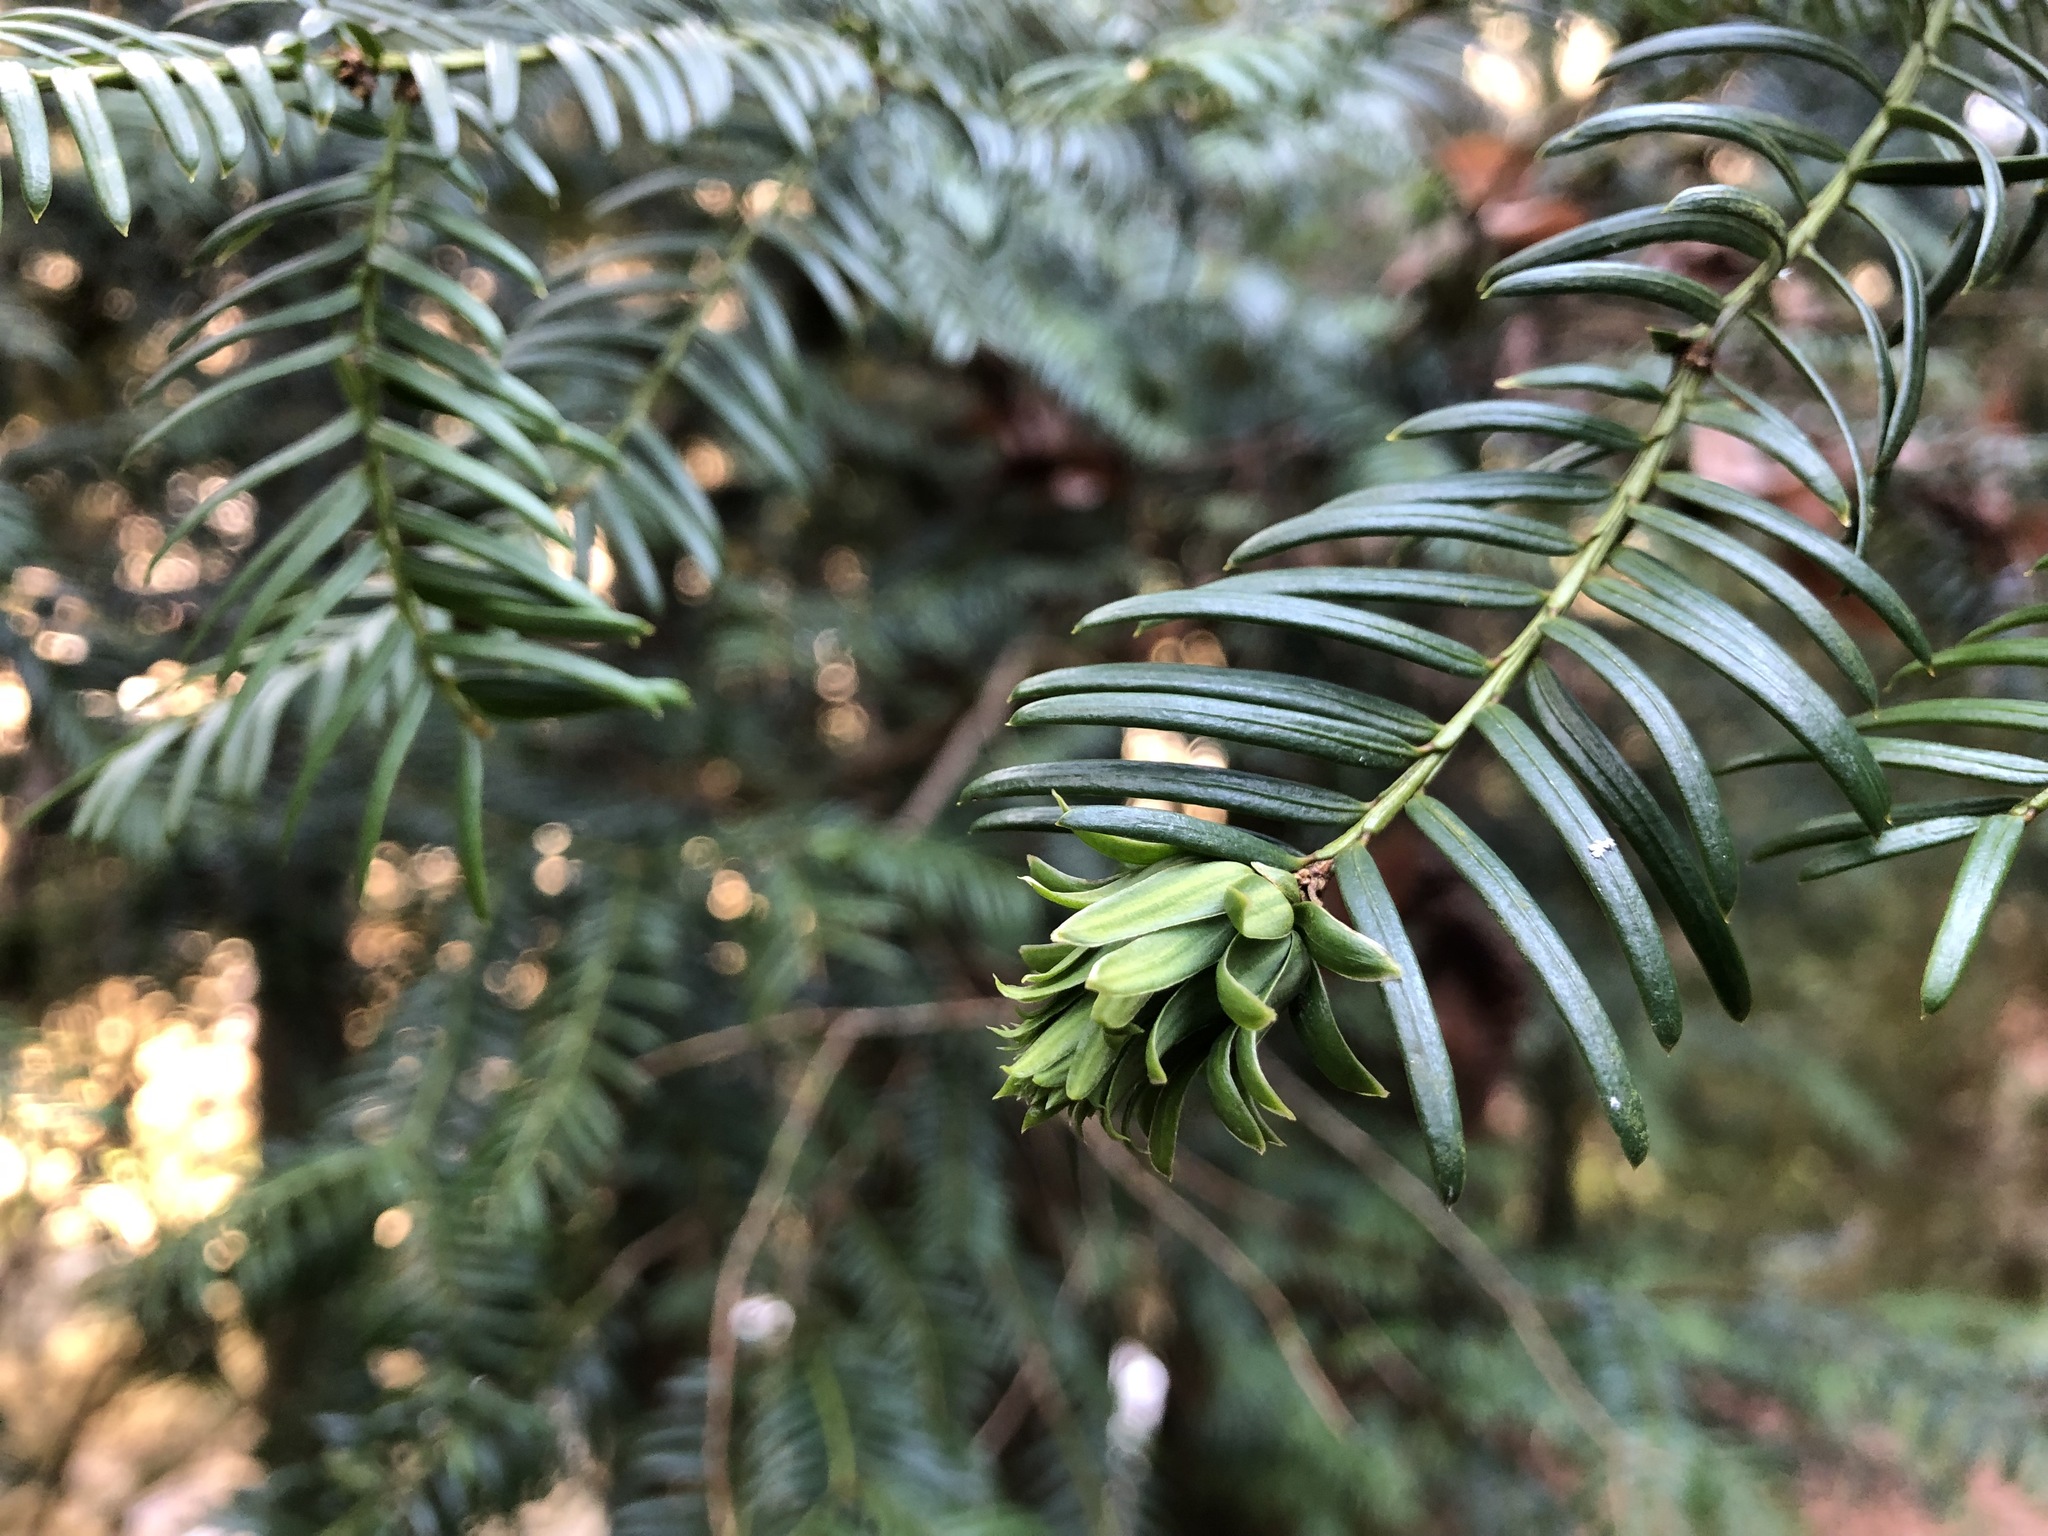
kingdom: Plantae
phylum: Tracheophyta
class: Pinopsida
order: Pinales
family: Taxaceae
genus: Taxus
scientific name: Taxus baccata
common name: Yew
